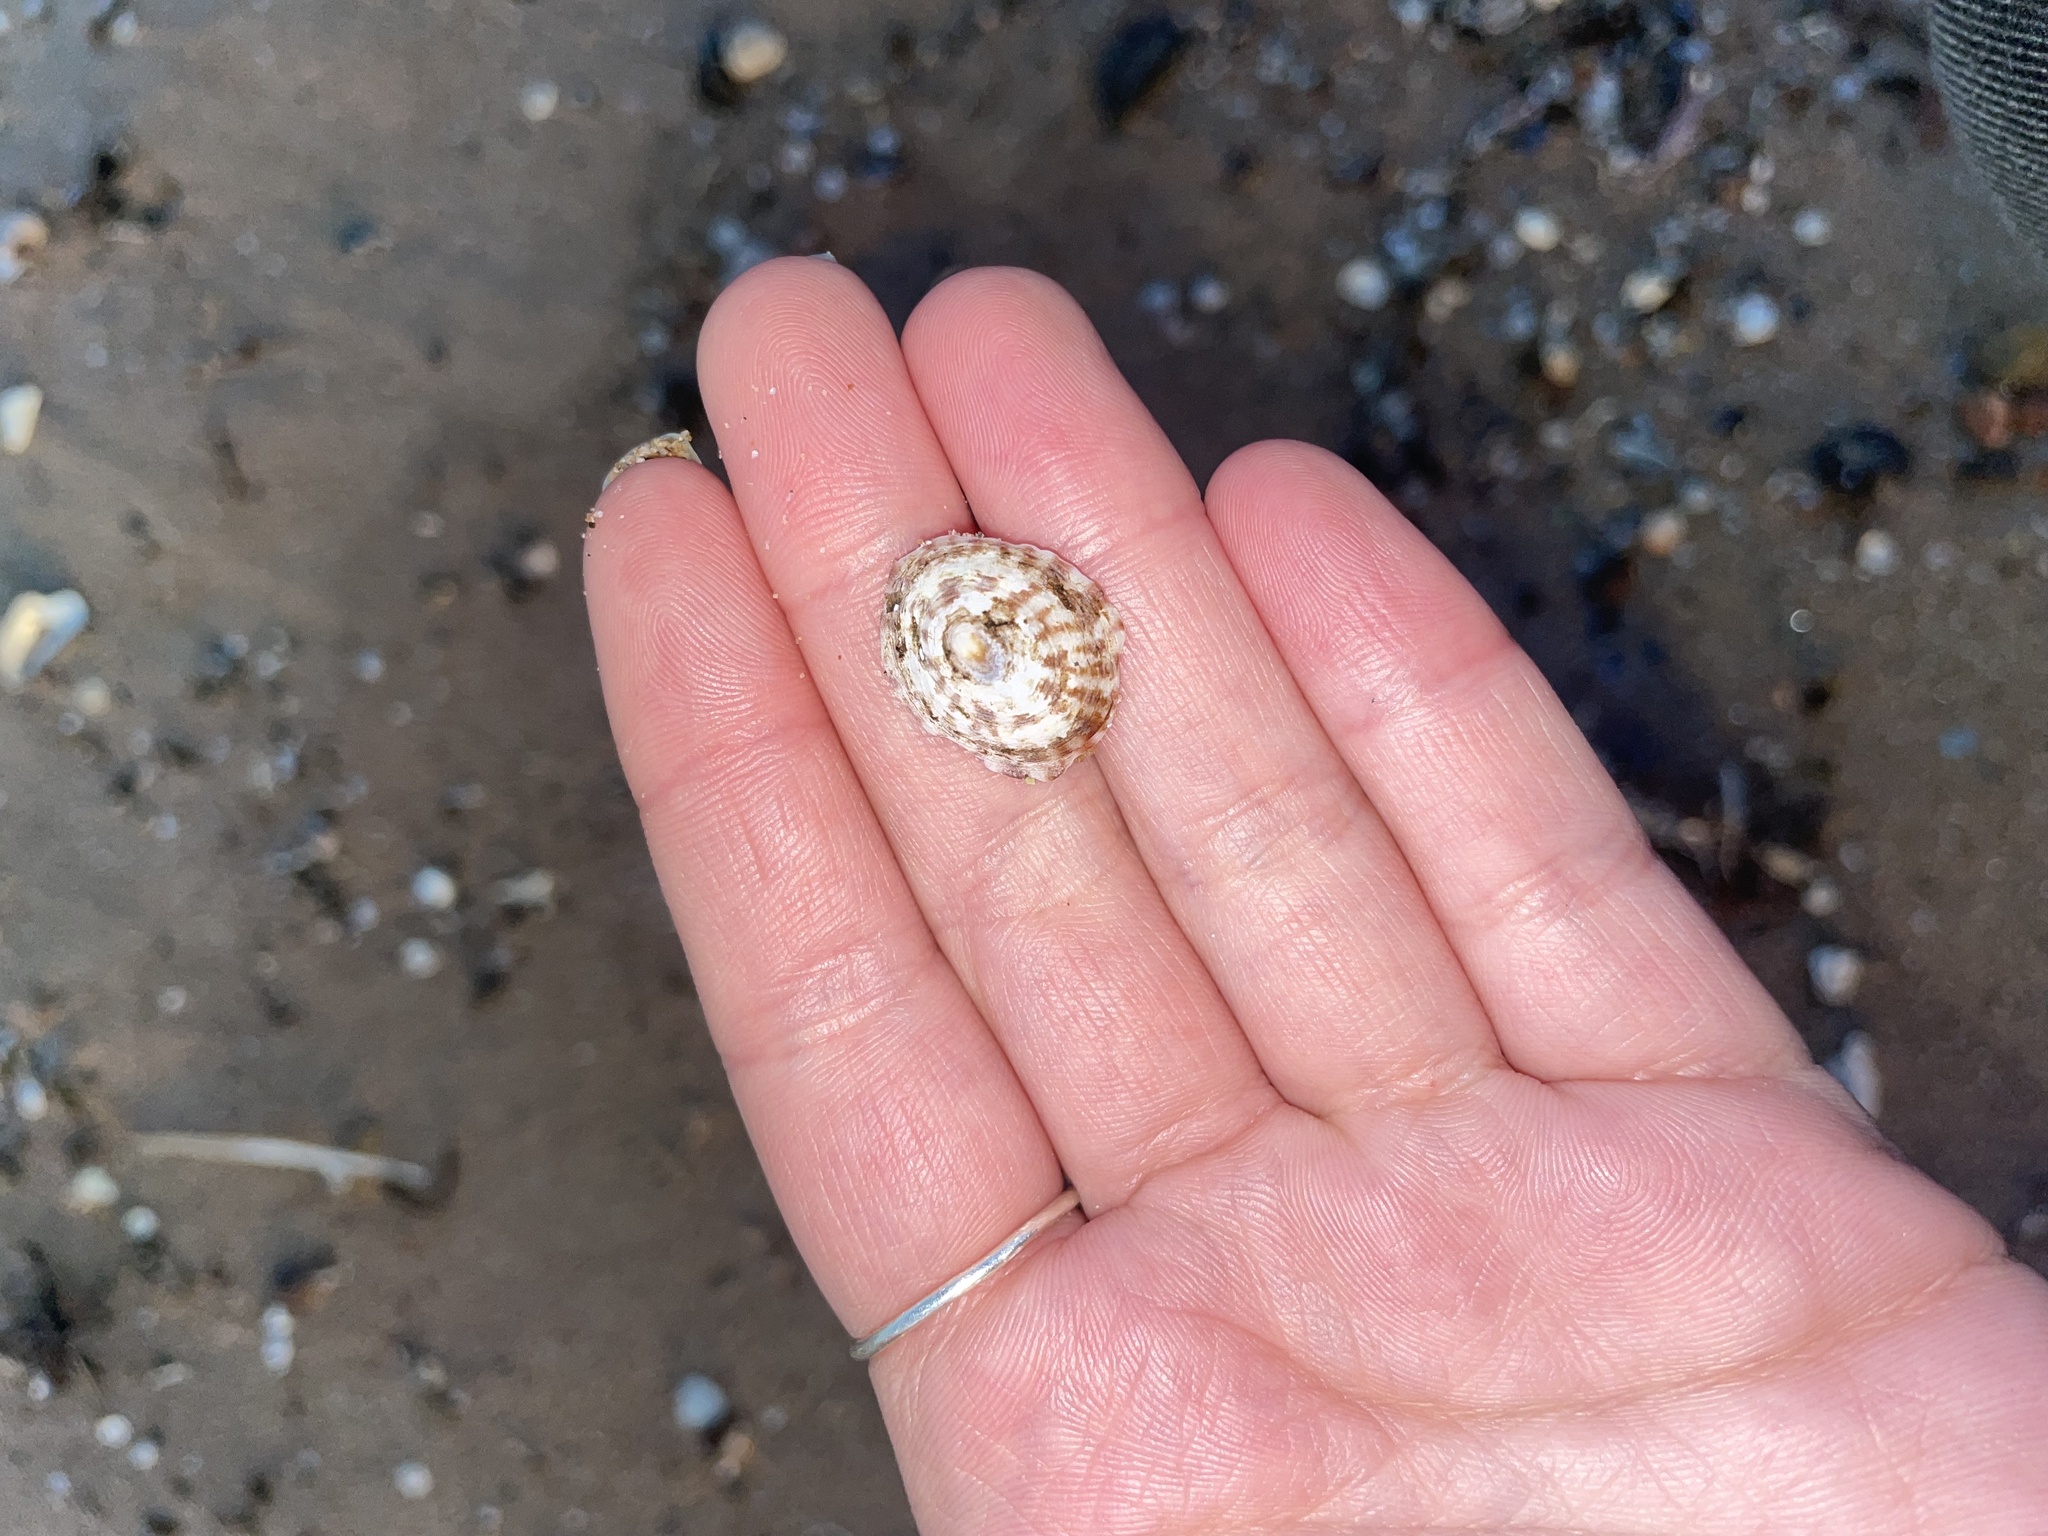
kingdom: Animalia
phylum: Mollusca
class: Gastropoda
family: Lottiidae
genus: Testudinalia
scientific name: Testudinalia testudinalis
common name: Common tortoiseshell limpet
